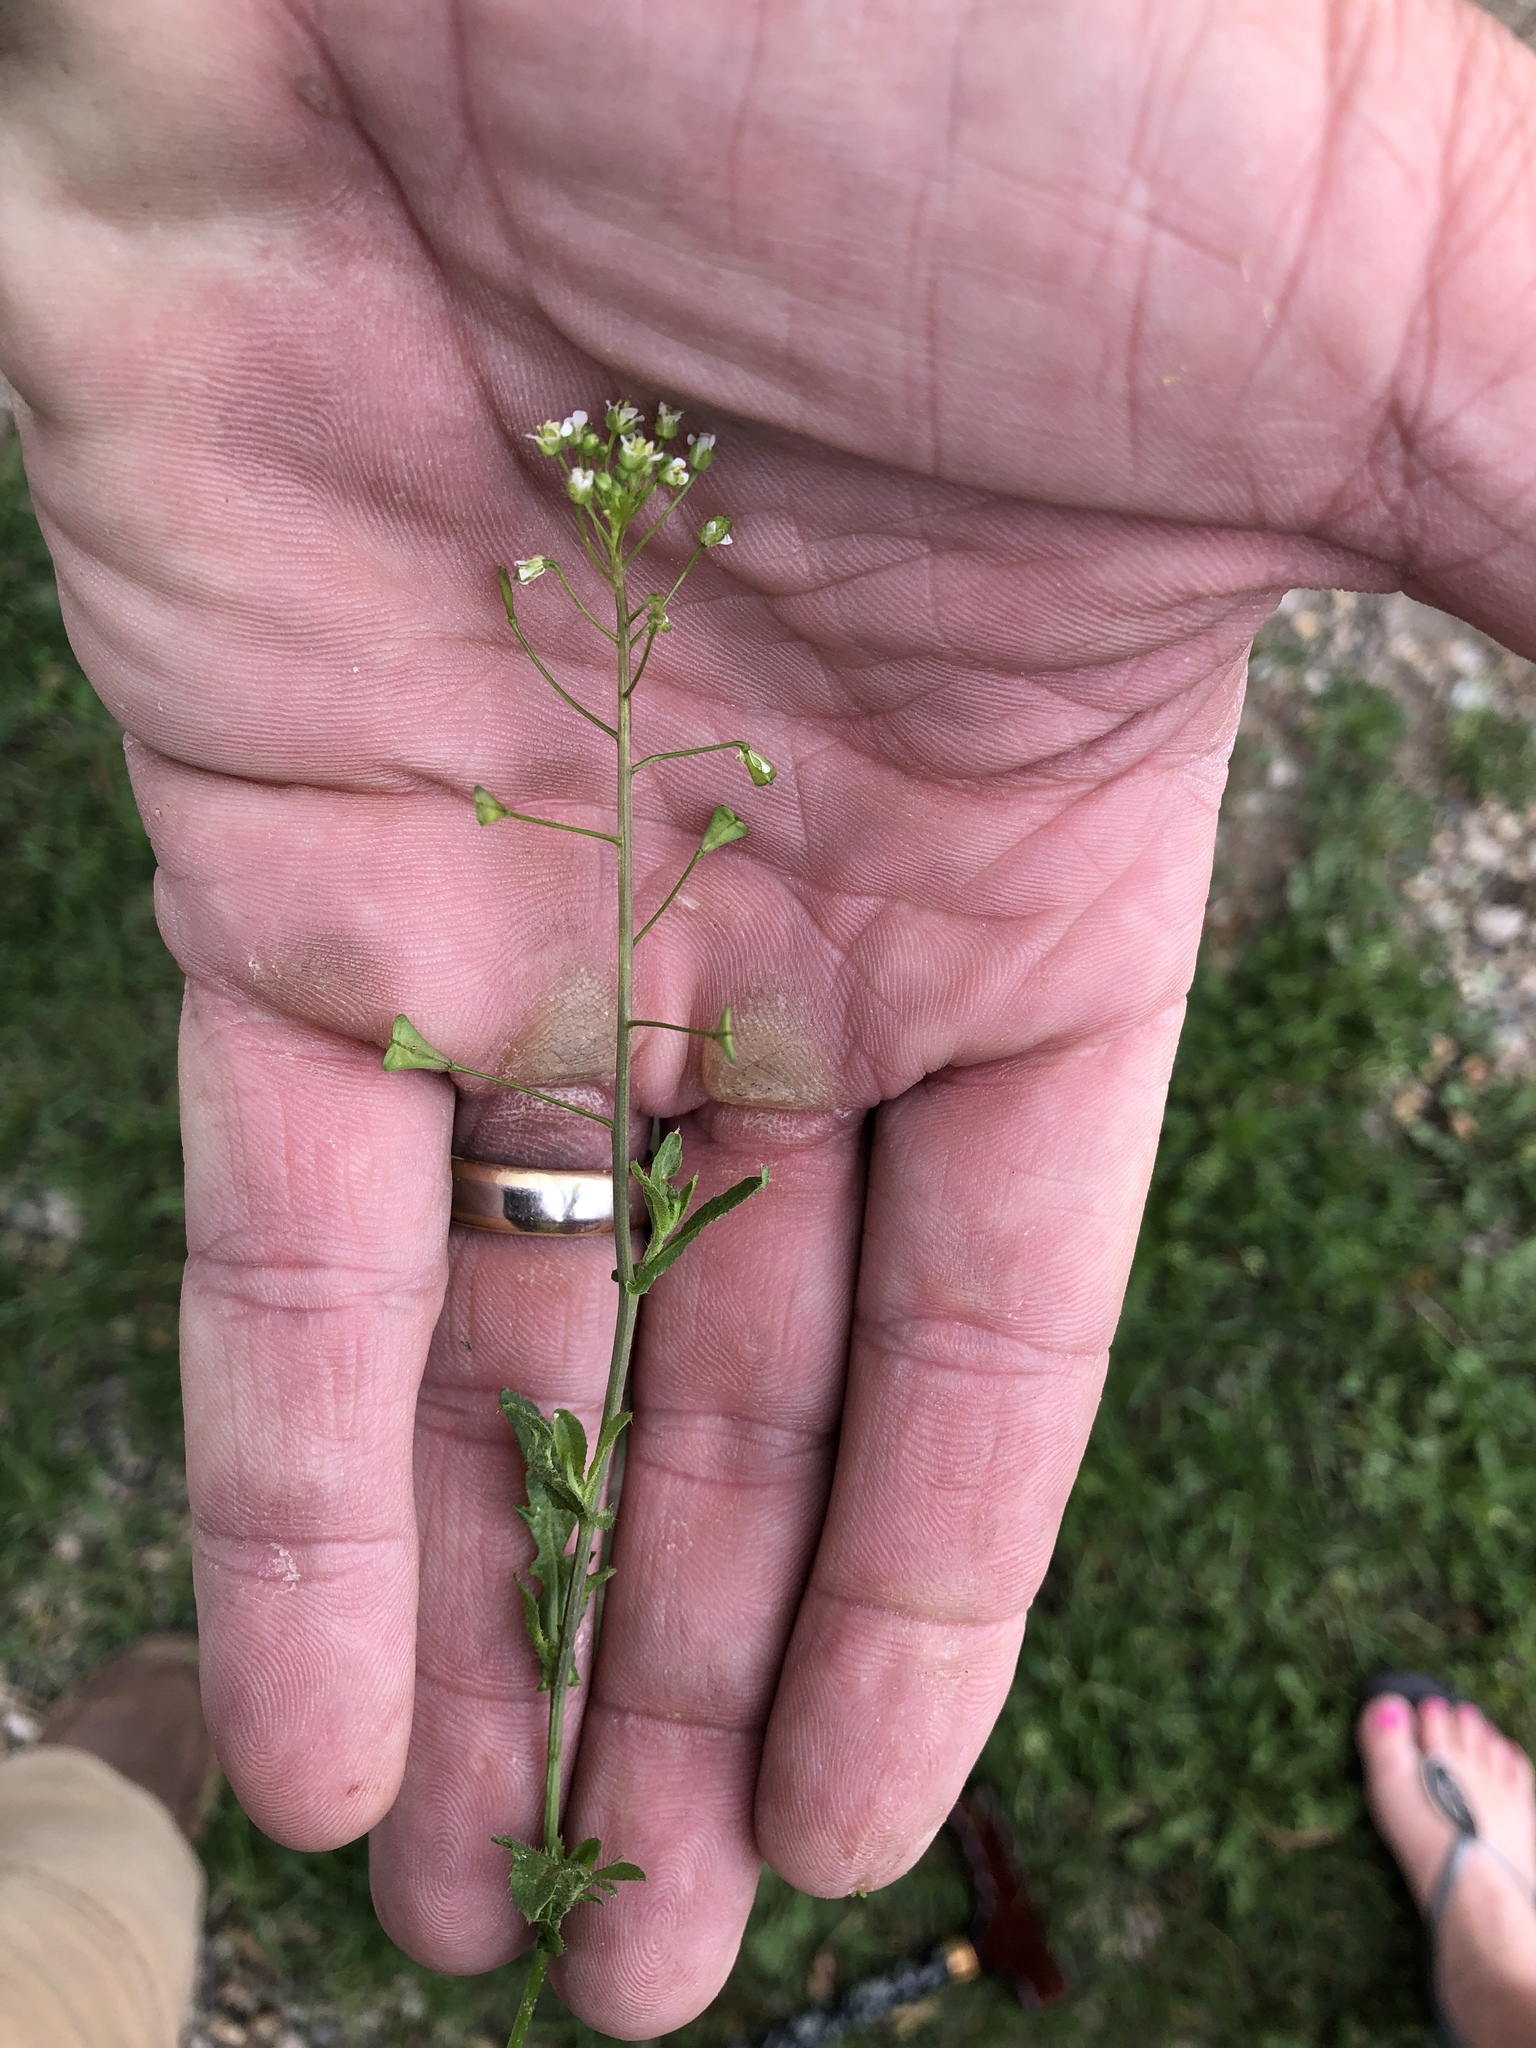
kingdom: Plantae
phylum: Tracheophyta
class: Magnoliopsida
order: Brassicales
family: Brassicaceae
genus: Capsella
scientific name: Capsella bursa-pastoris
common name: Shepherd's purse
